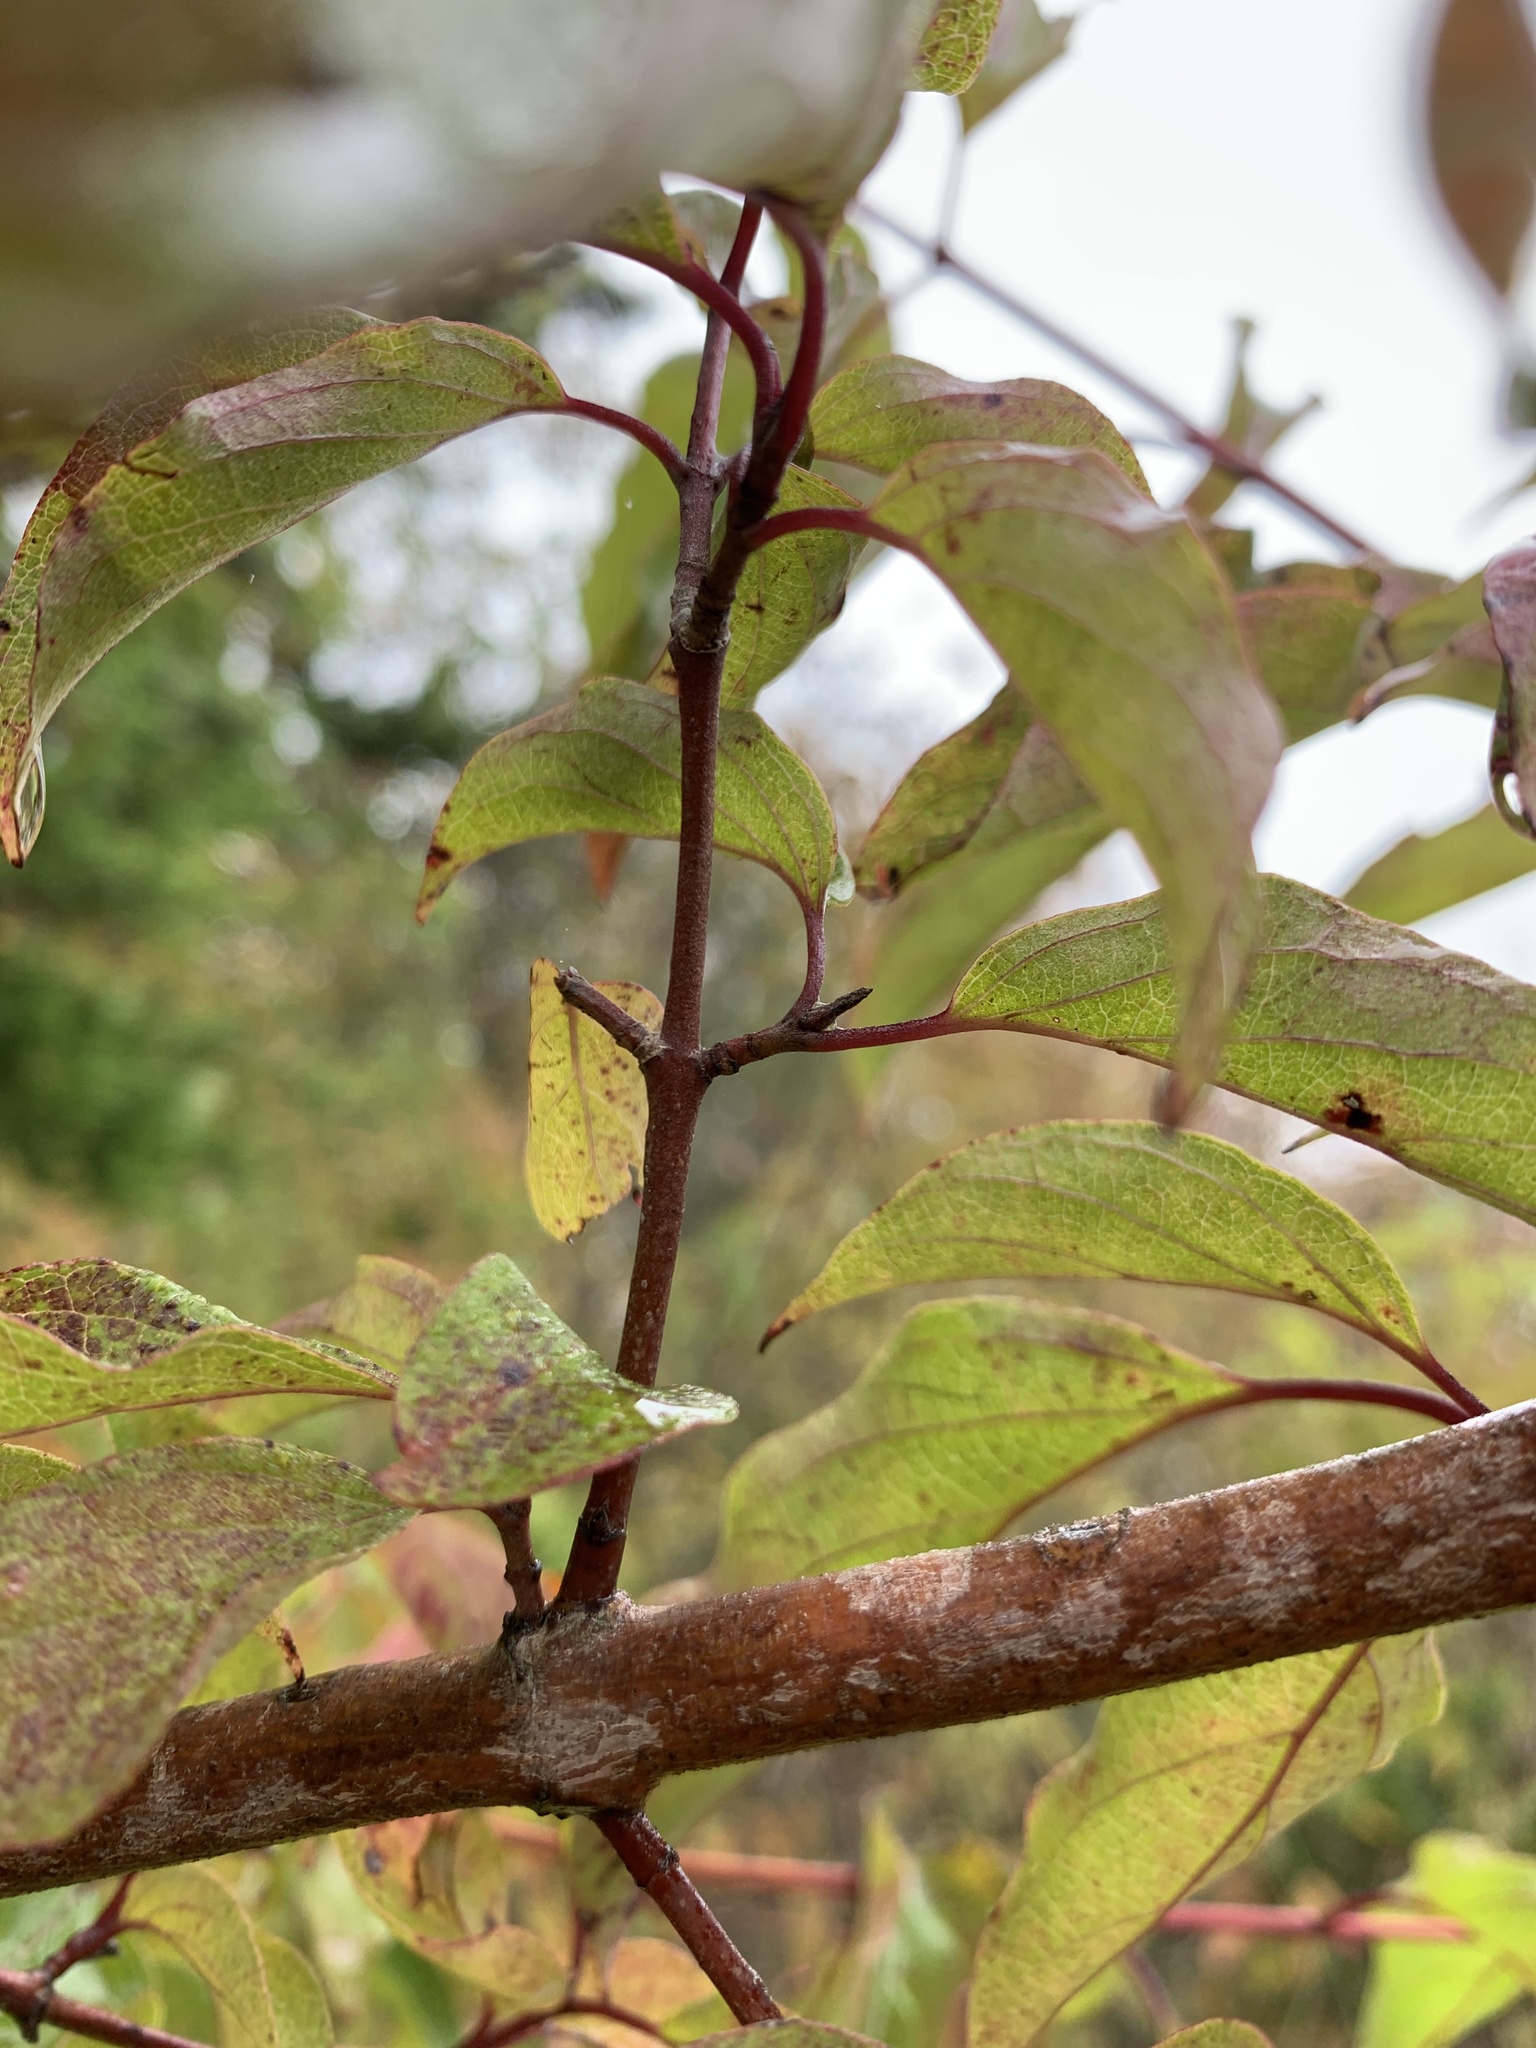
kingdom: Plantae
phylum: Tracheophyta
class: Magnoliopsida
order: Cornales
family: Cornaceae
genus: Cornus
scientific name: Cornus drummondii
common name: Rough-leaf dogwood
